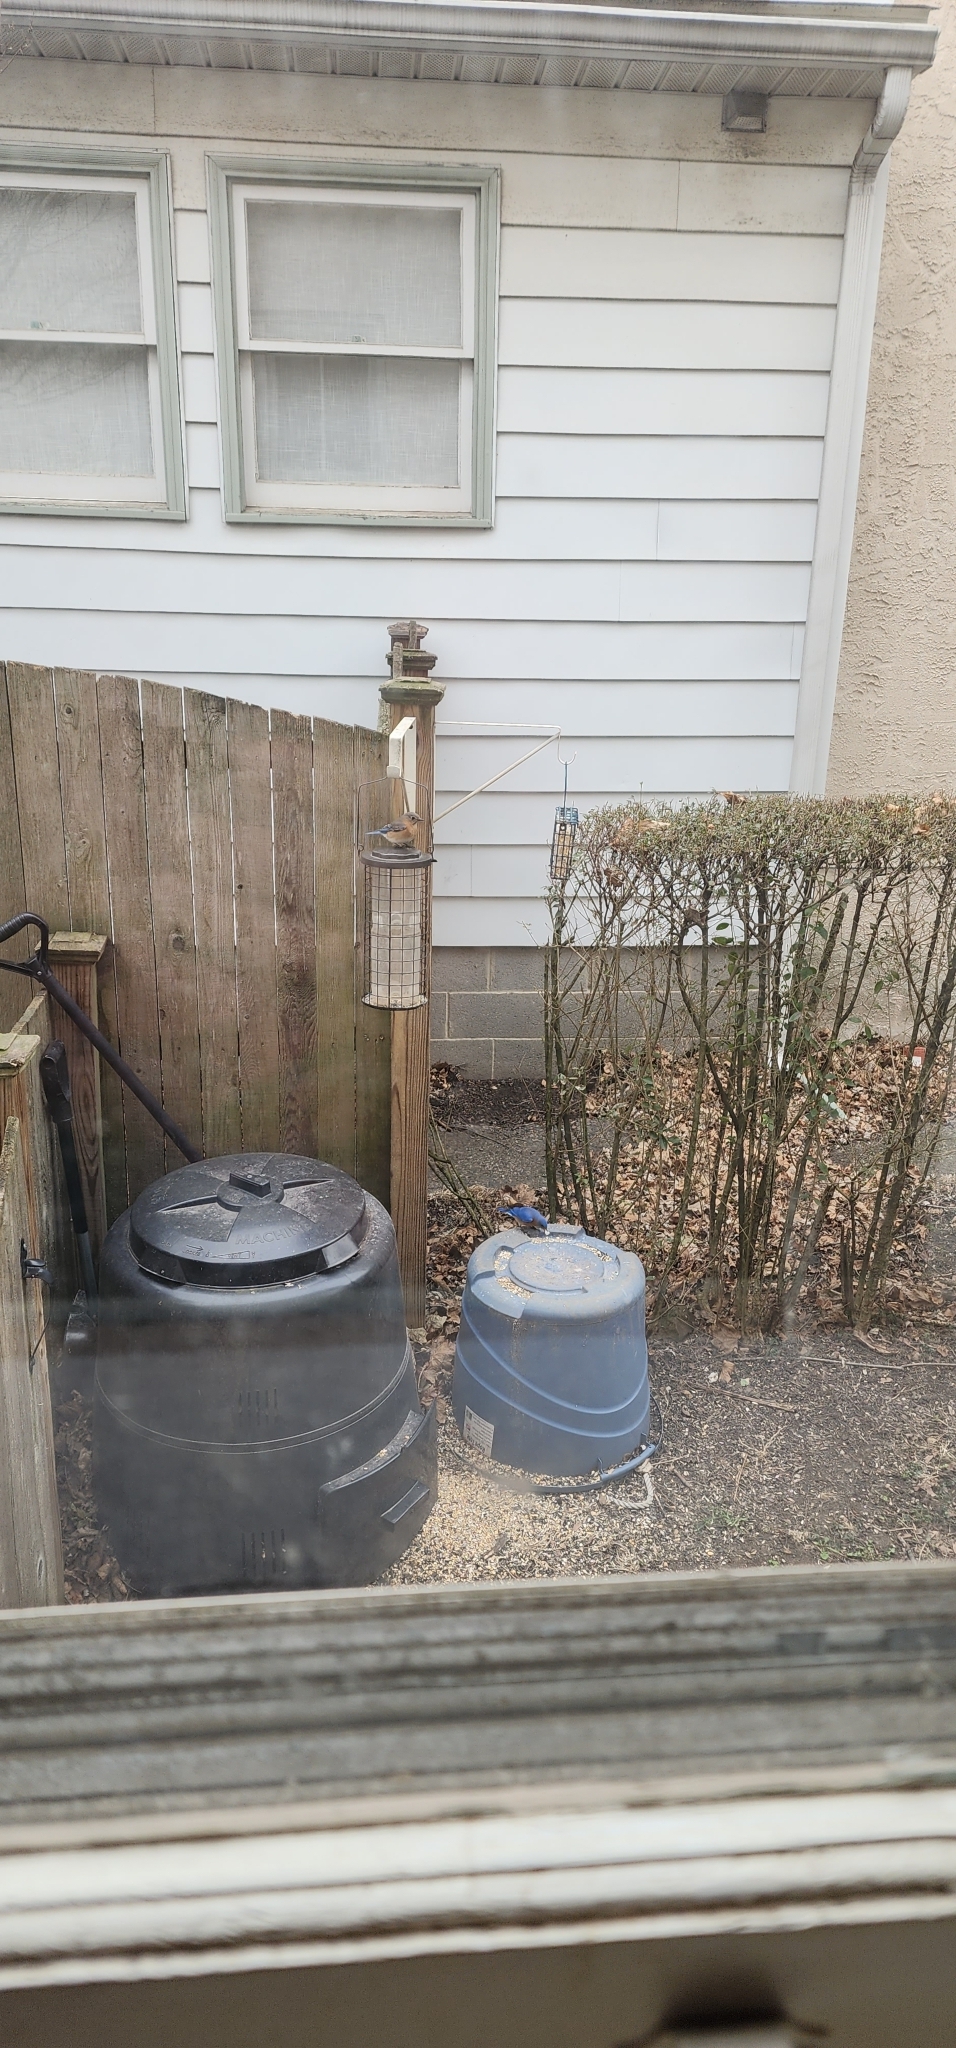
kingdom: Animalia
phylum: Chordata
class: Aves
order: Passeriformes
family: Turdidae
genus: Sialia
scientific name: Sialia sialis
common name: Eastern bluebird
